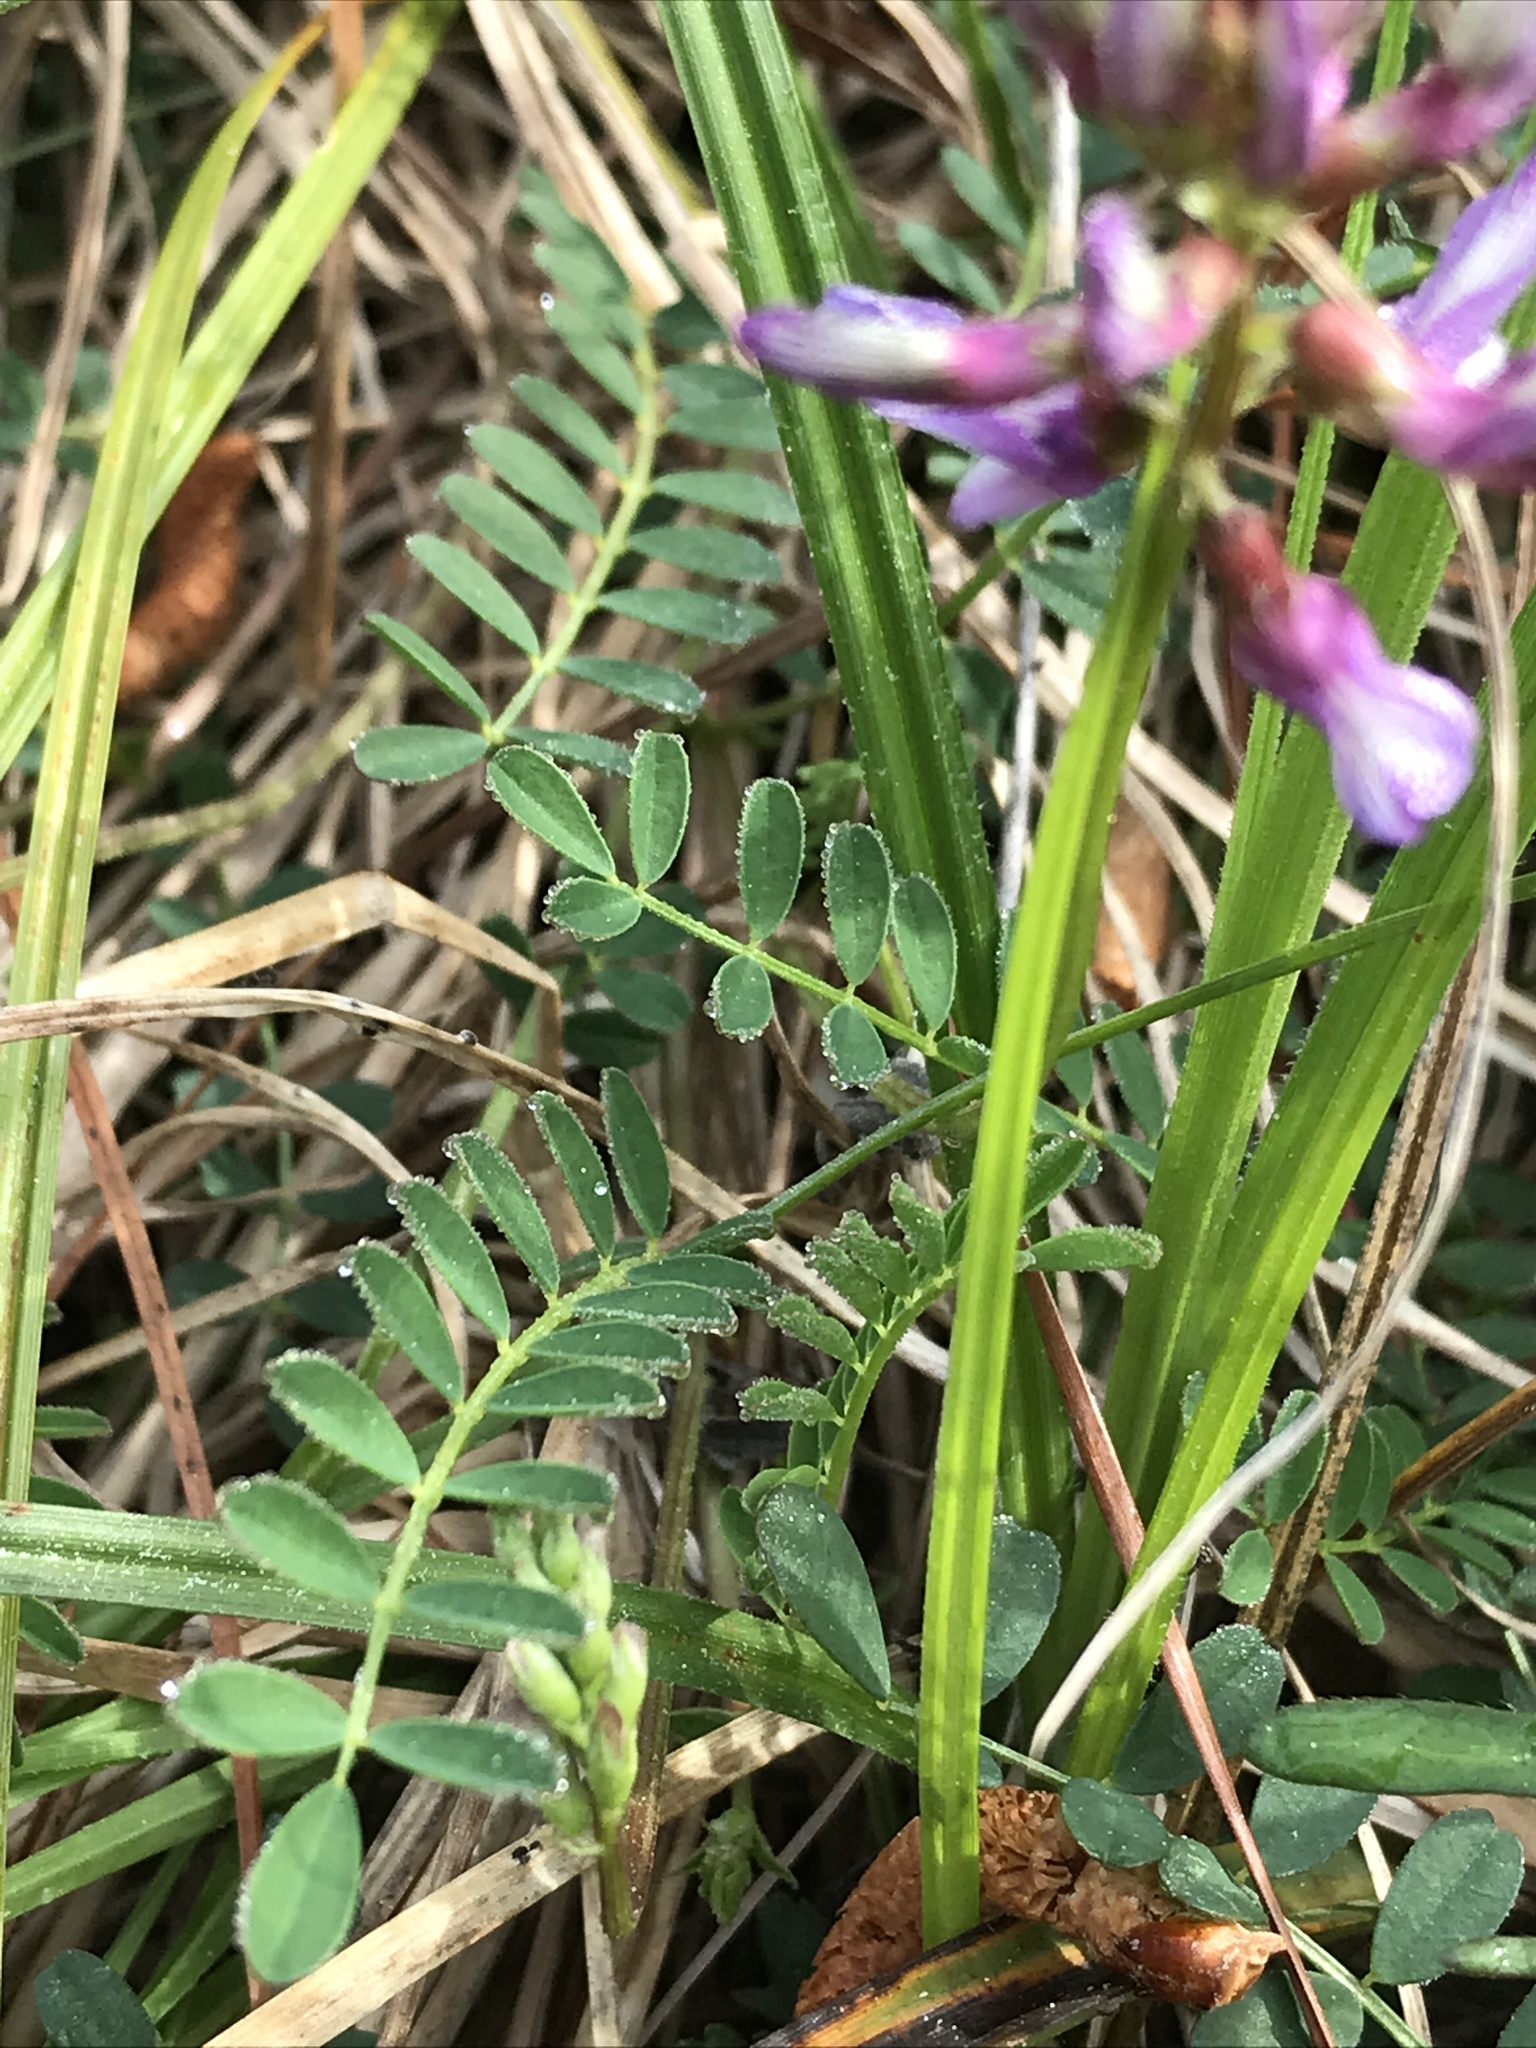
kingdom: Plantae
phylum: Tracheophyta
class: Magnoliopsida
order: Fabales
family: Fabaceae
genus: Astragalus
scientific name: Astragalus distortus
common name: Ozark milk-vetch
